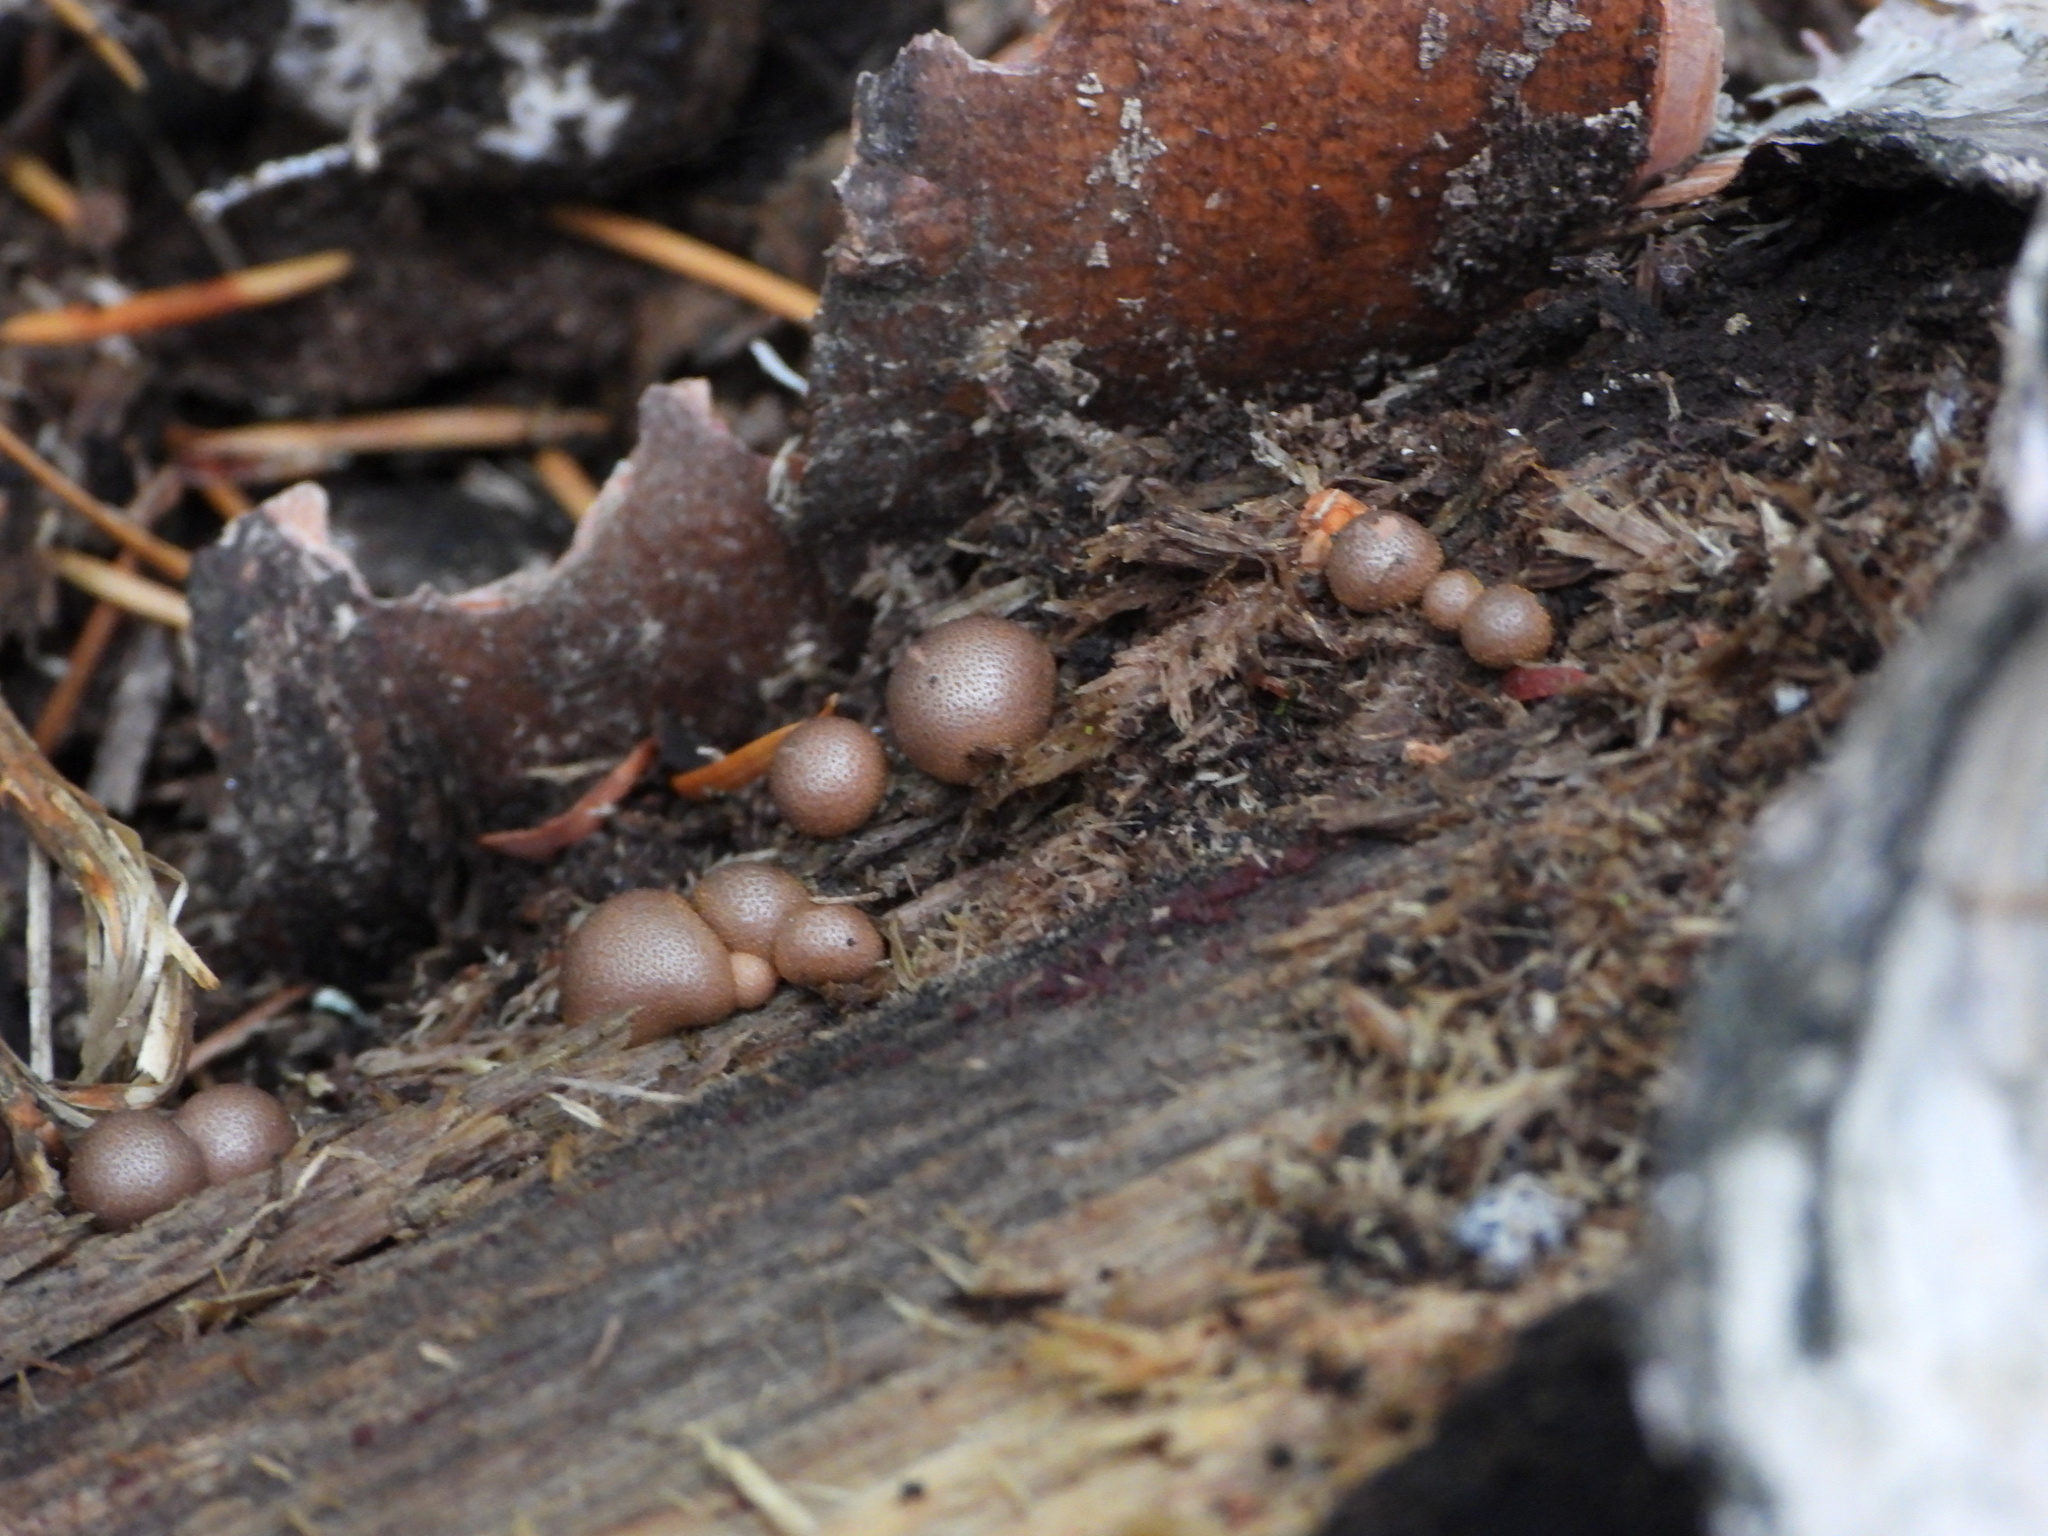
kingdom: Protozoa
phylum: Mycetozoa
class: Myxomycetes
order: Cribrariales
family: Tubiferaceae
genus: Lycogala
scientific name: Lycogala epidendrum
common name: Wolf's milk
